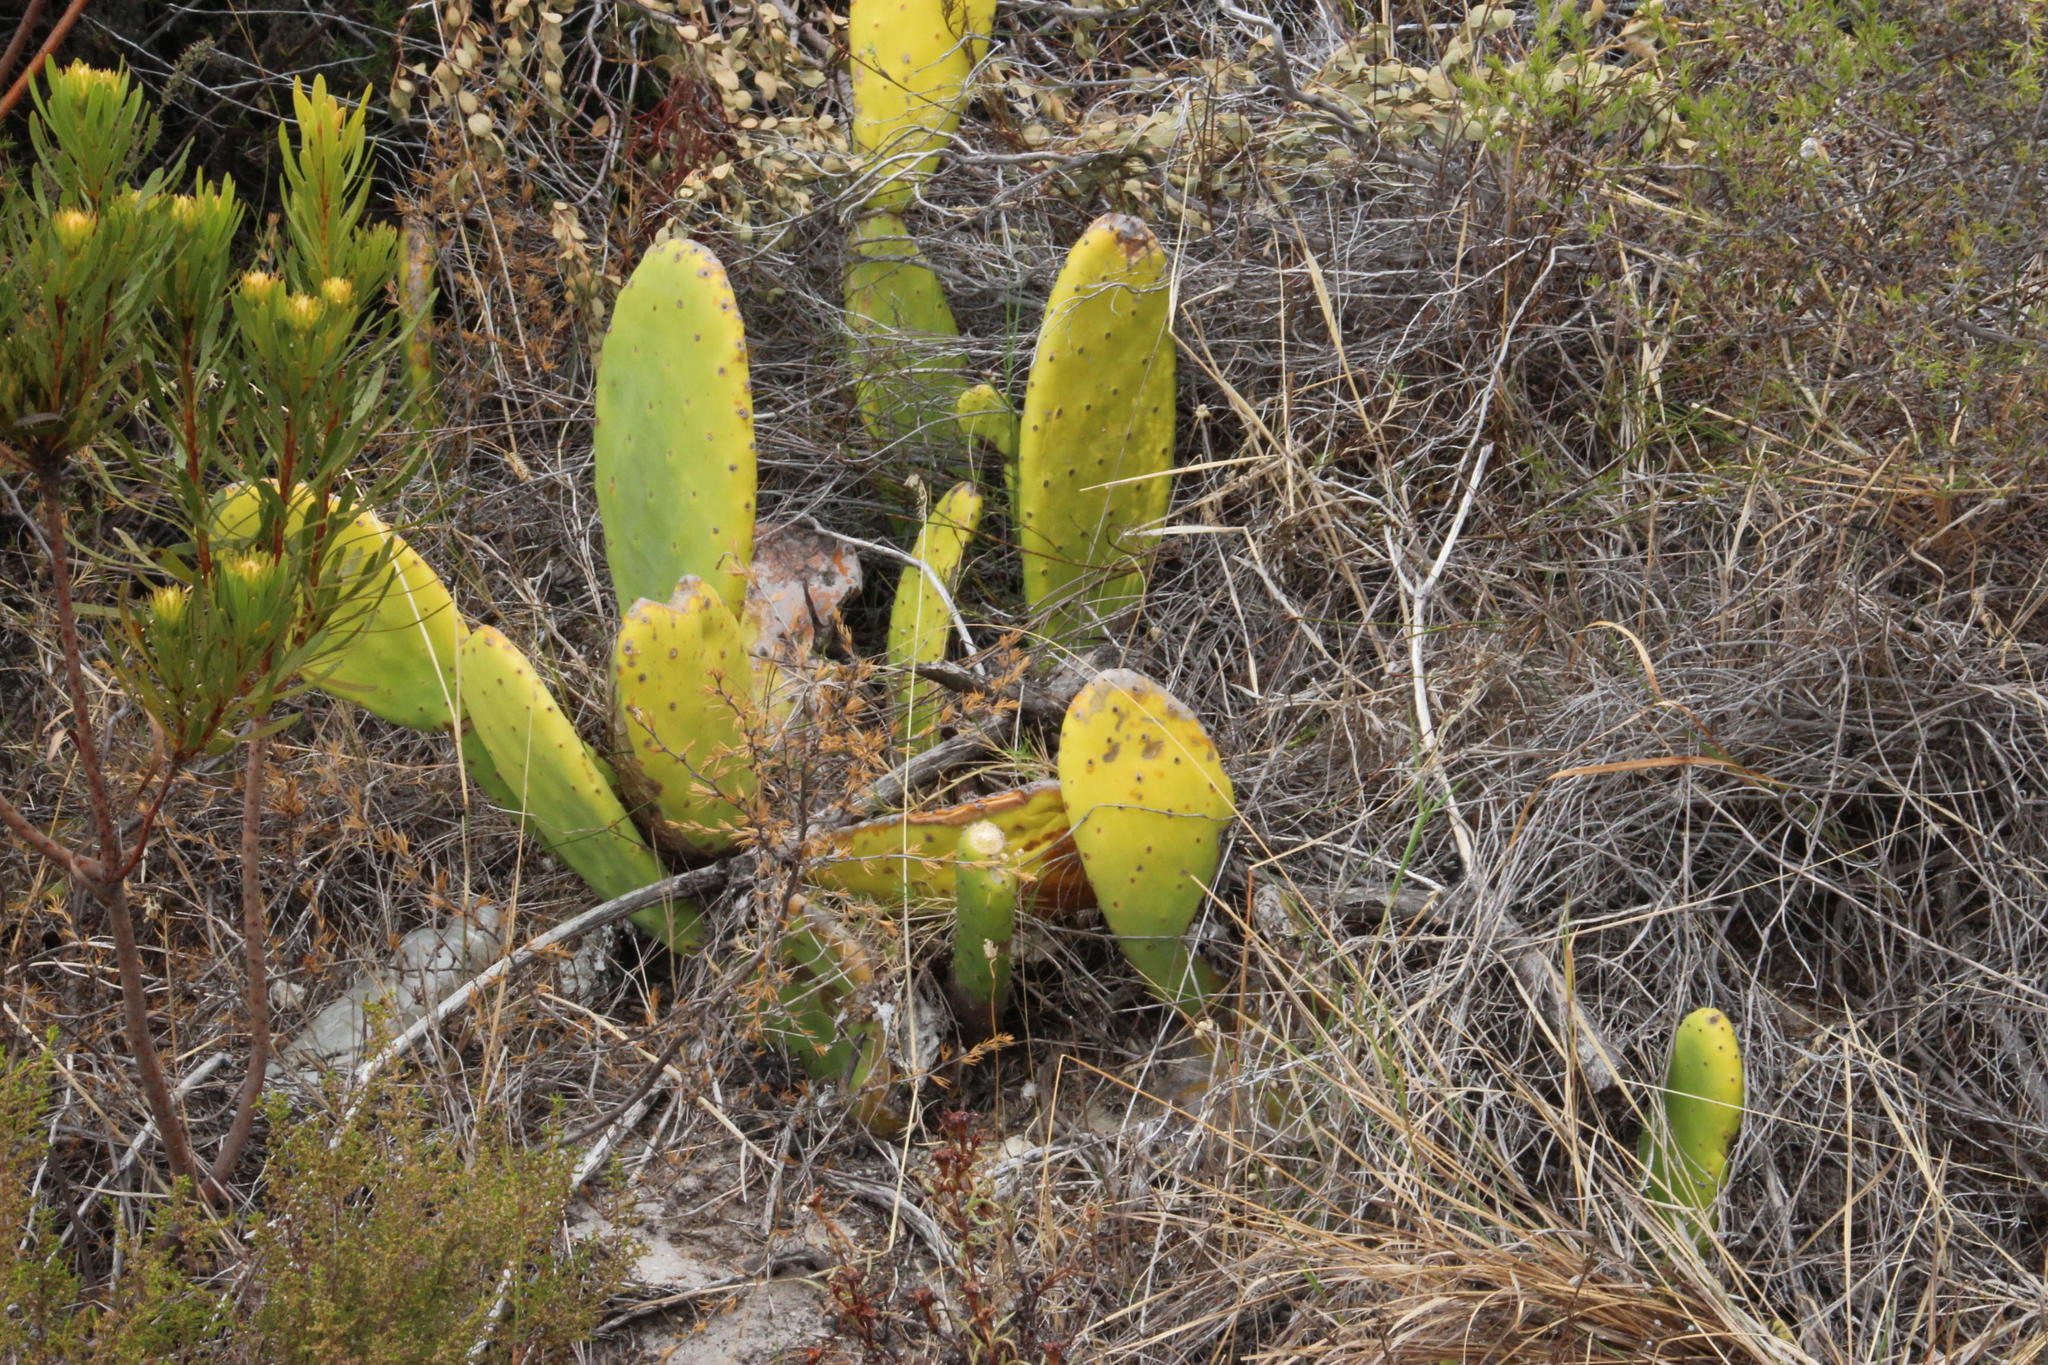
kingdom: Plantae
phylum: Tracheophyta
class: Magnoliopsida
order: Caryophyllales
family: Cactaceae
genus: Opuntia
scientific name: Opuntia ficus-indica
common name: Barbary fig
